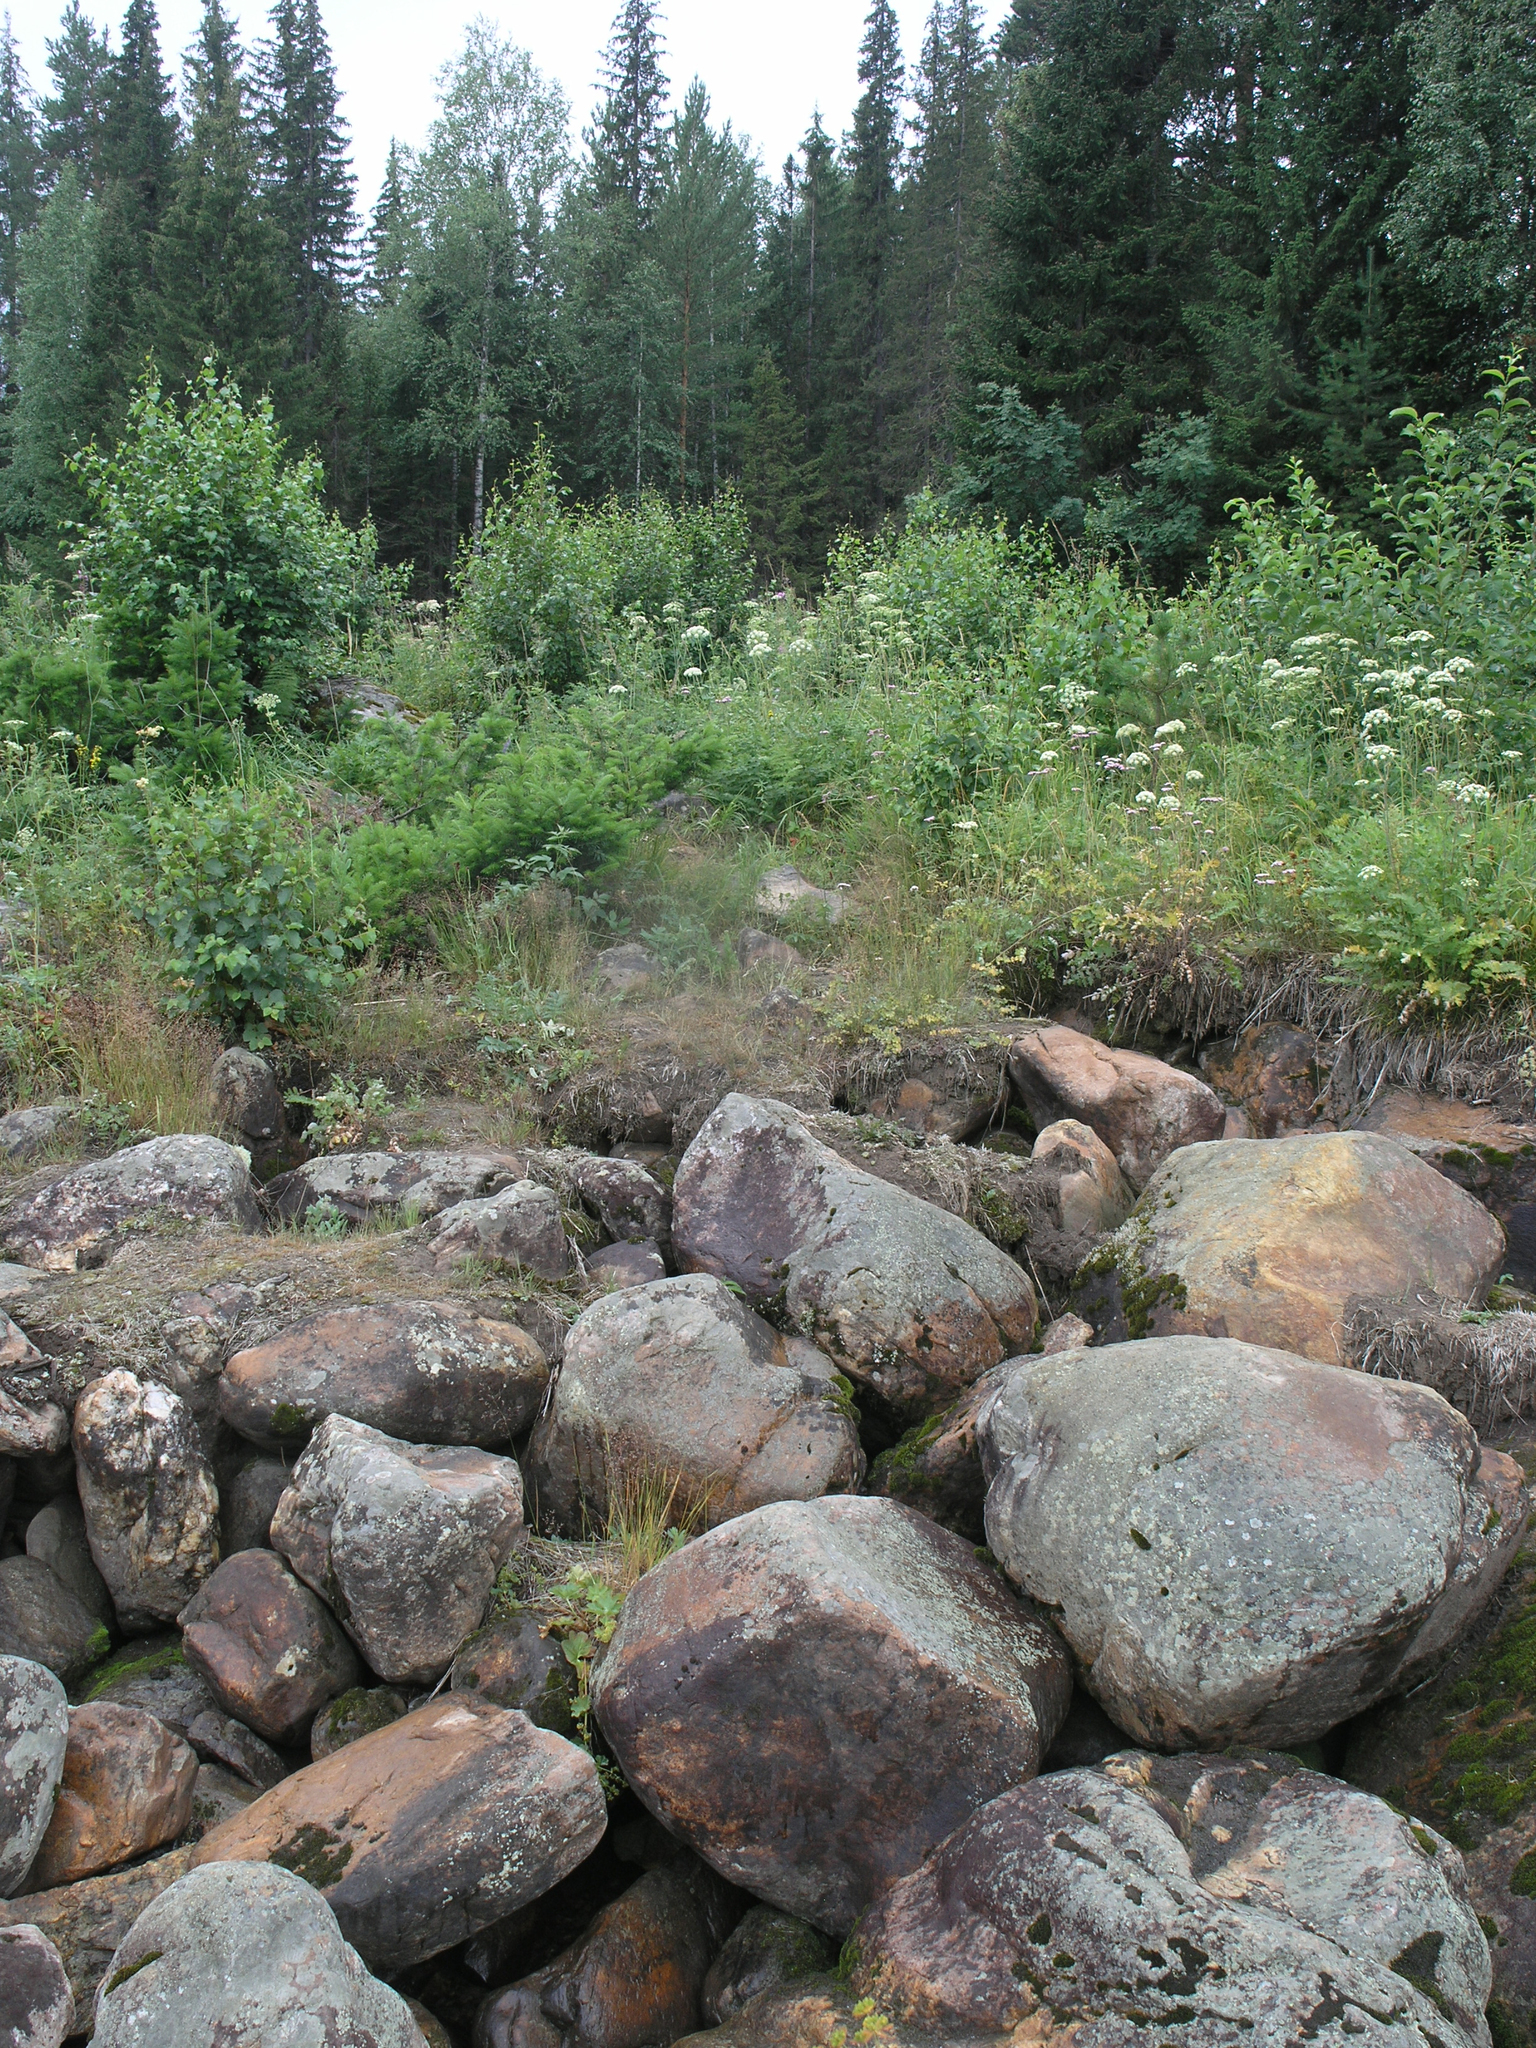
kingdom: Plantae
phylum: Tracheophyta
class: Pinopsida
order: Pinales
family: Pinaceae
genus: Picea
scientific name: Picea obovata
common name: Siberian spruce
